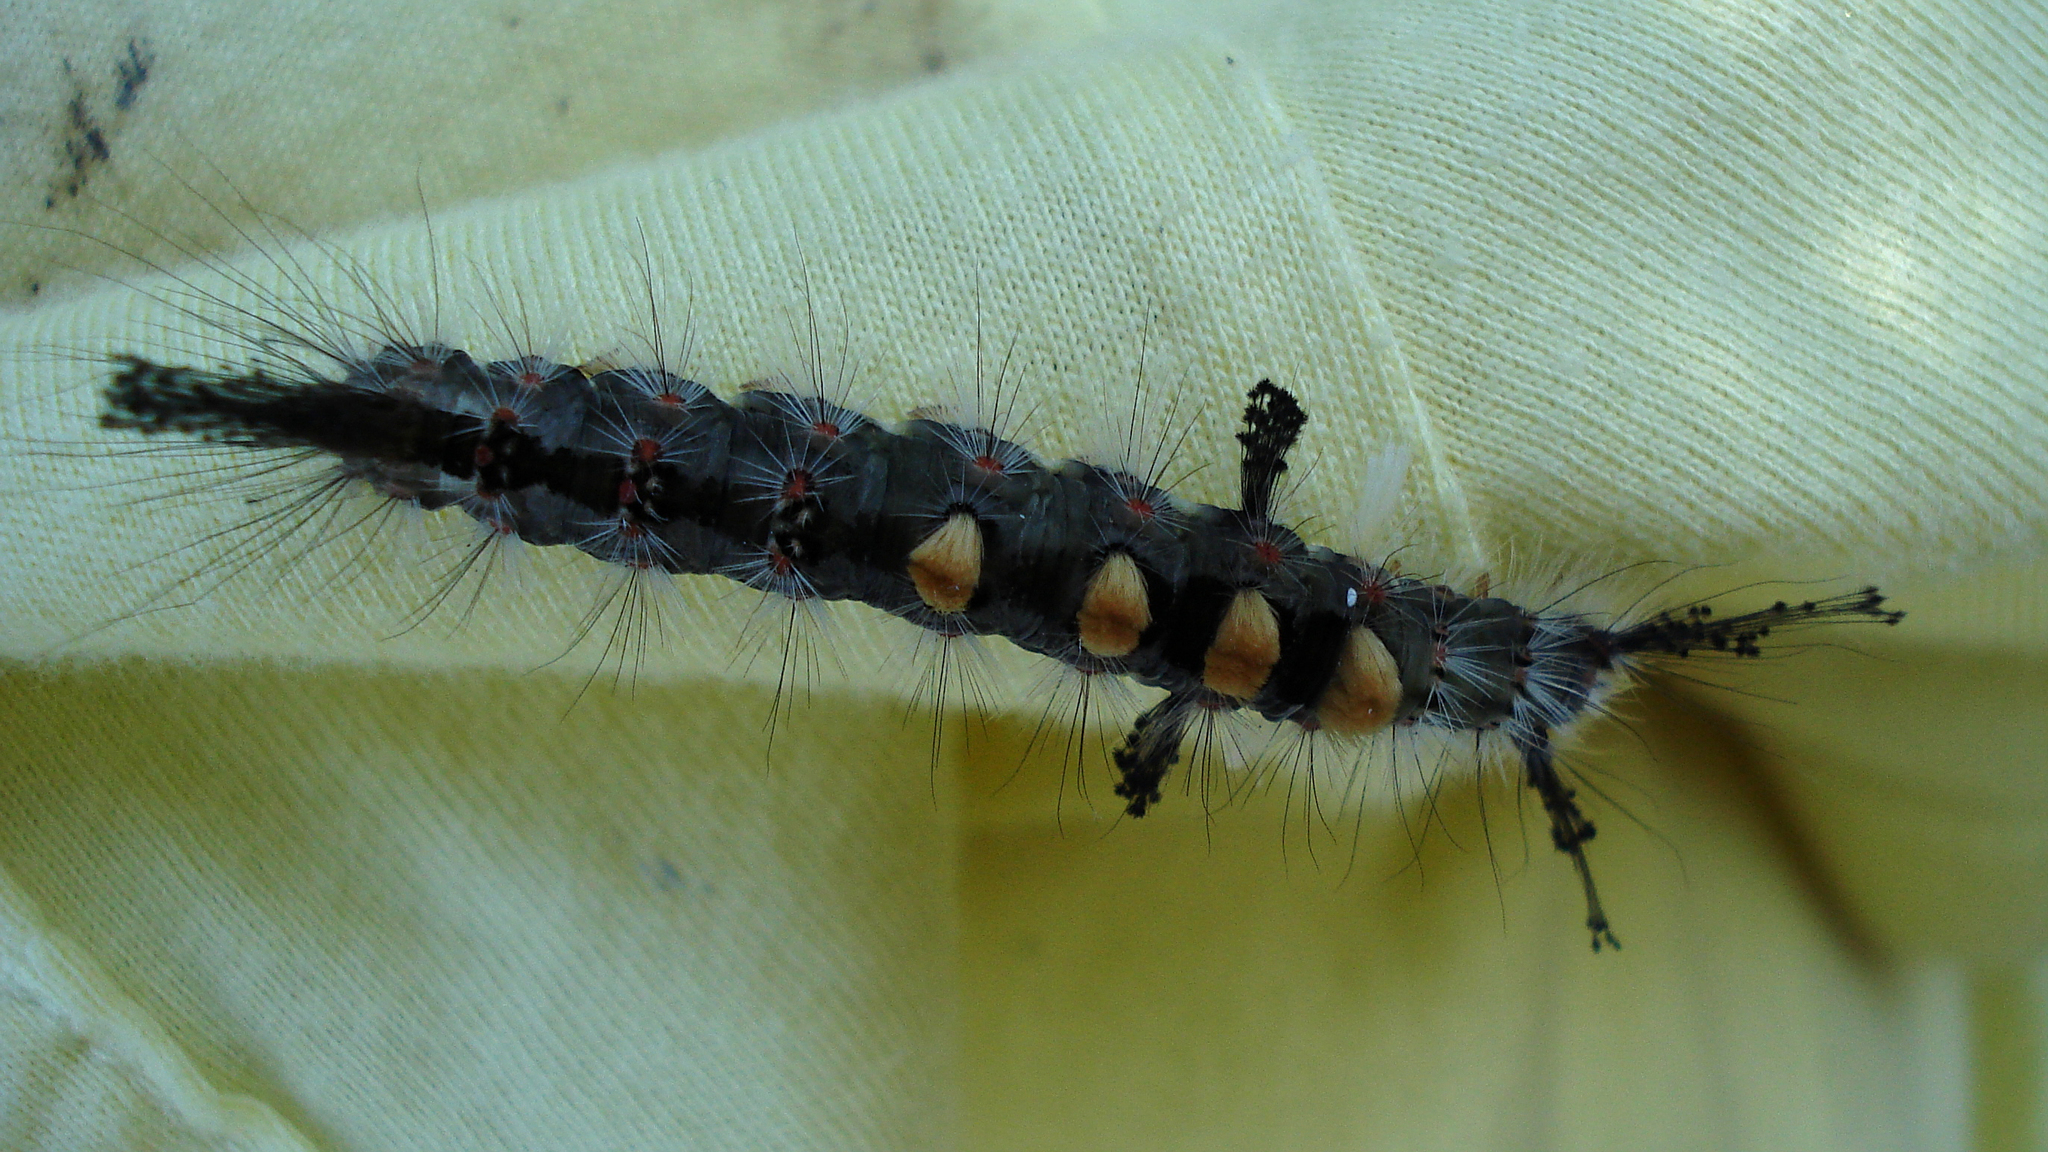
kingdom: Animalia
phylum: Arthropoda
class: Insecta
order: Lepidoptera
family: Erebidae
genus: Orgyia
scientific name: Orgyia antiqua
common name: Vapourer
